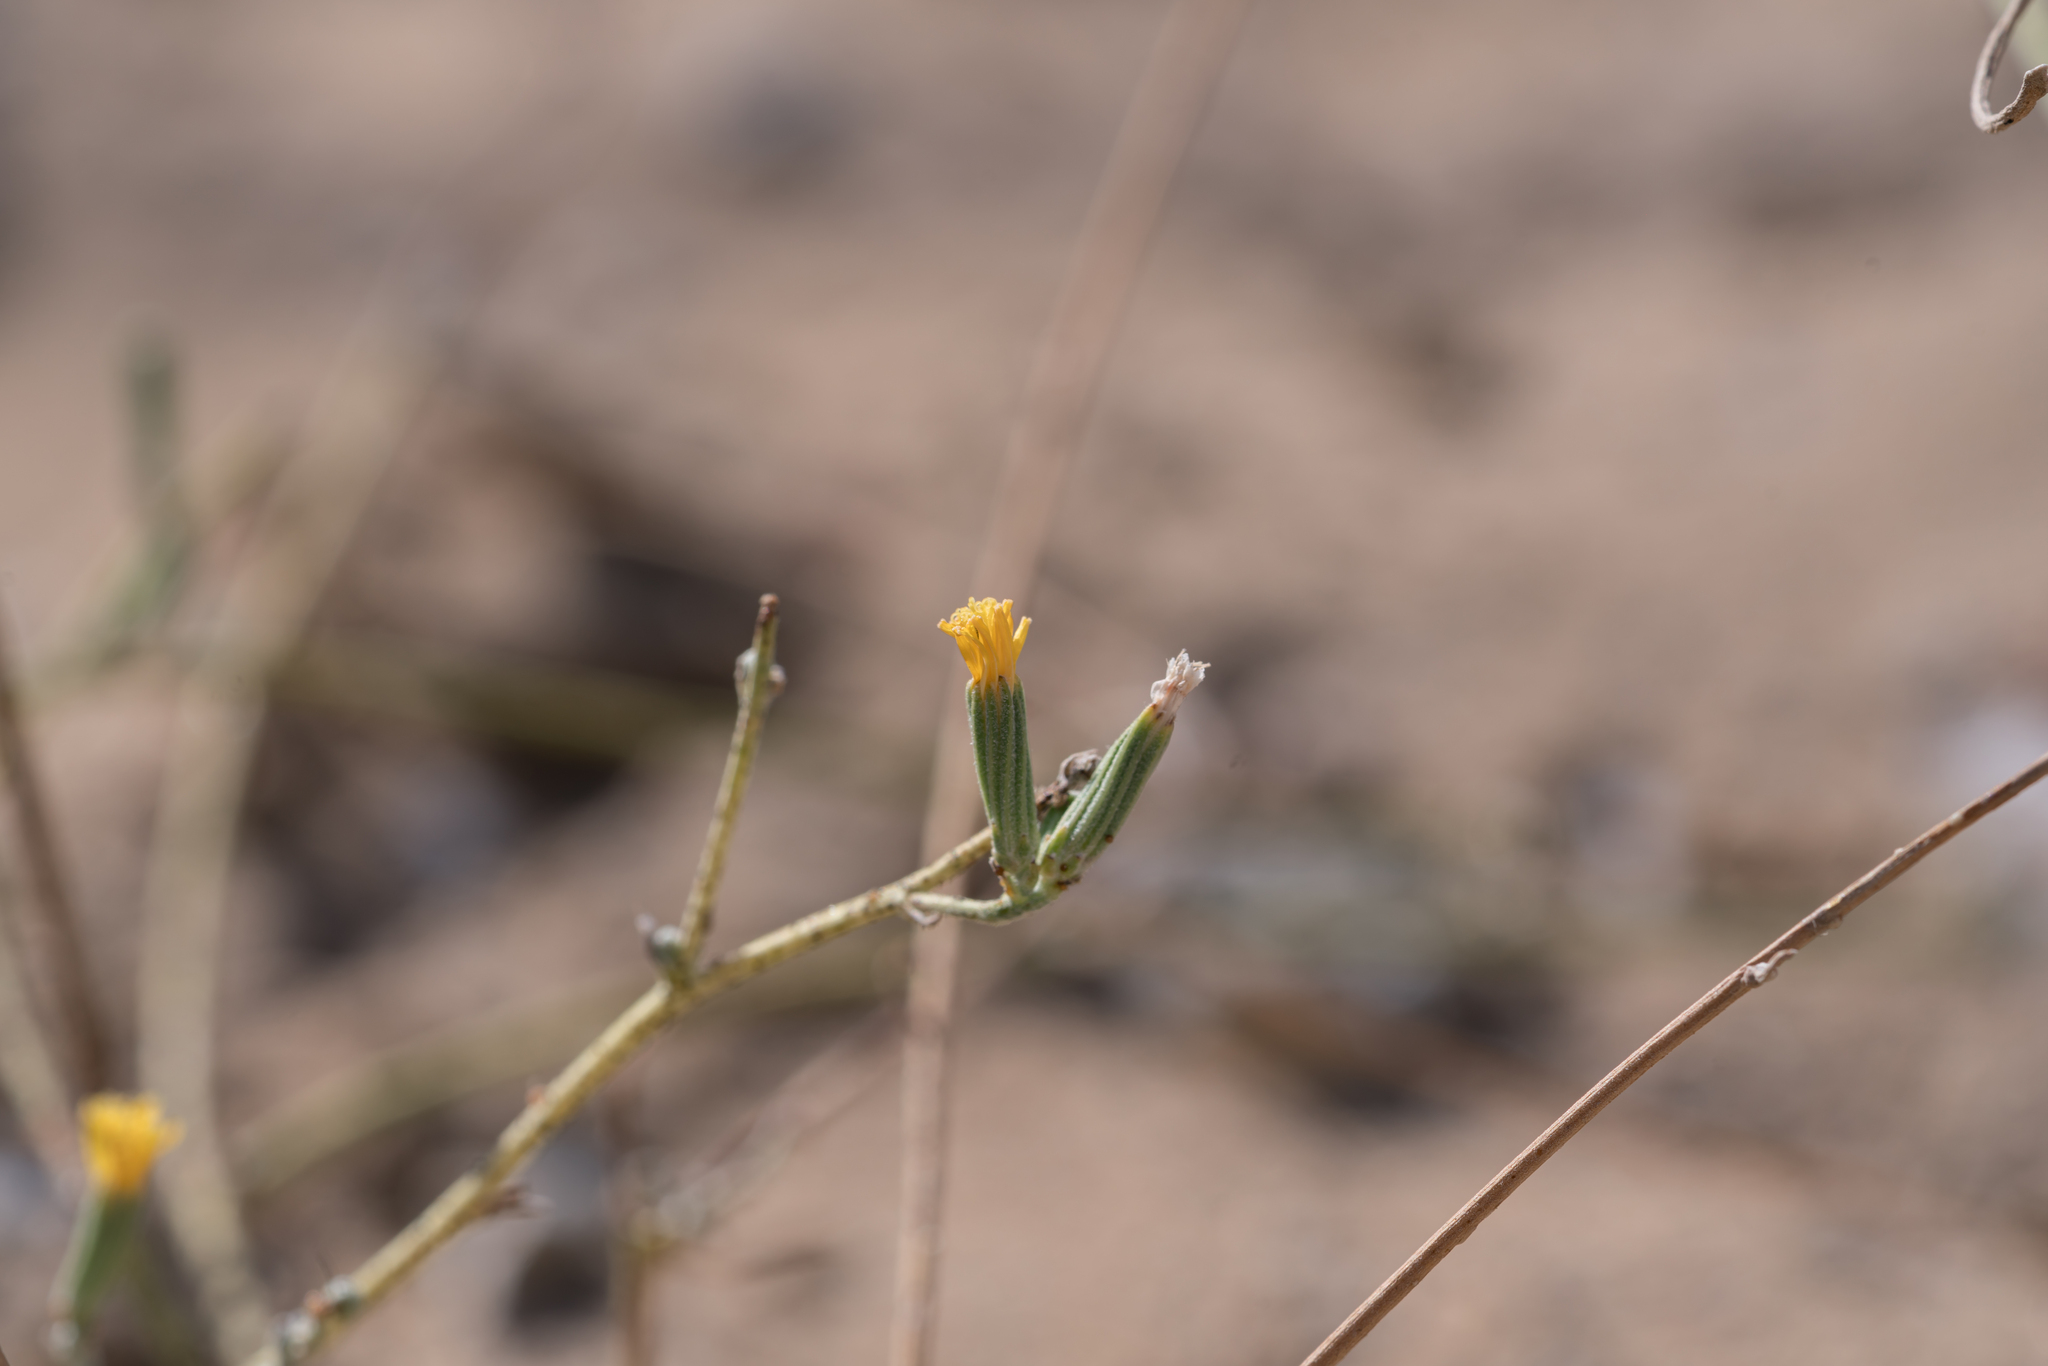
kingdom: Plantae
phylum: Tracheophyta
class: Magnoliopsida
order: Asterales
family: Asteraceae
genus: Chondrilla
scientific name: Chondrilla juncea
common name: Skeleton weed
